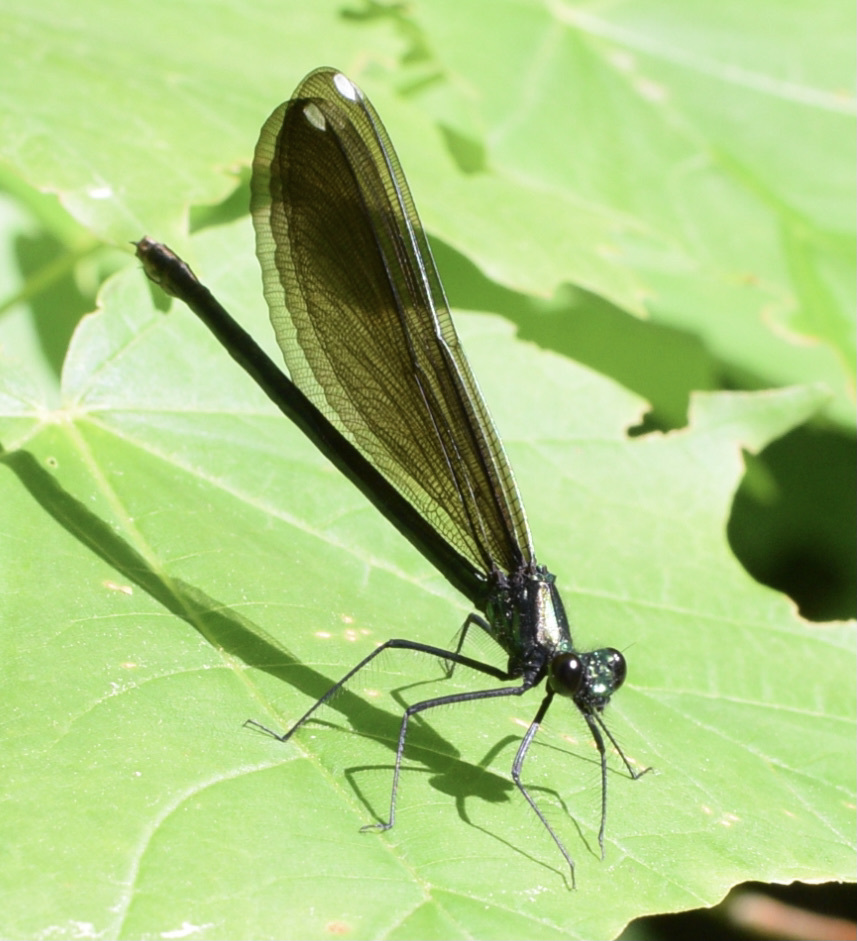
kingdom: Animalia
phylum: Arthropoda
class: Insecta
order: Odonata
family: Calopterygidae
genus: Calopteryx
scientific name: Calopteryx maculata
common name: Ebony jewelwing
